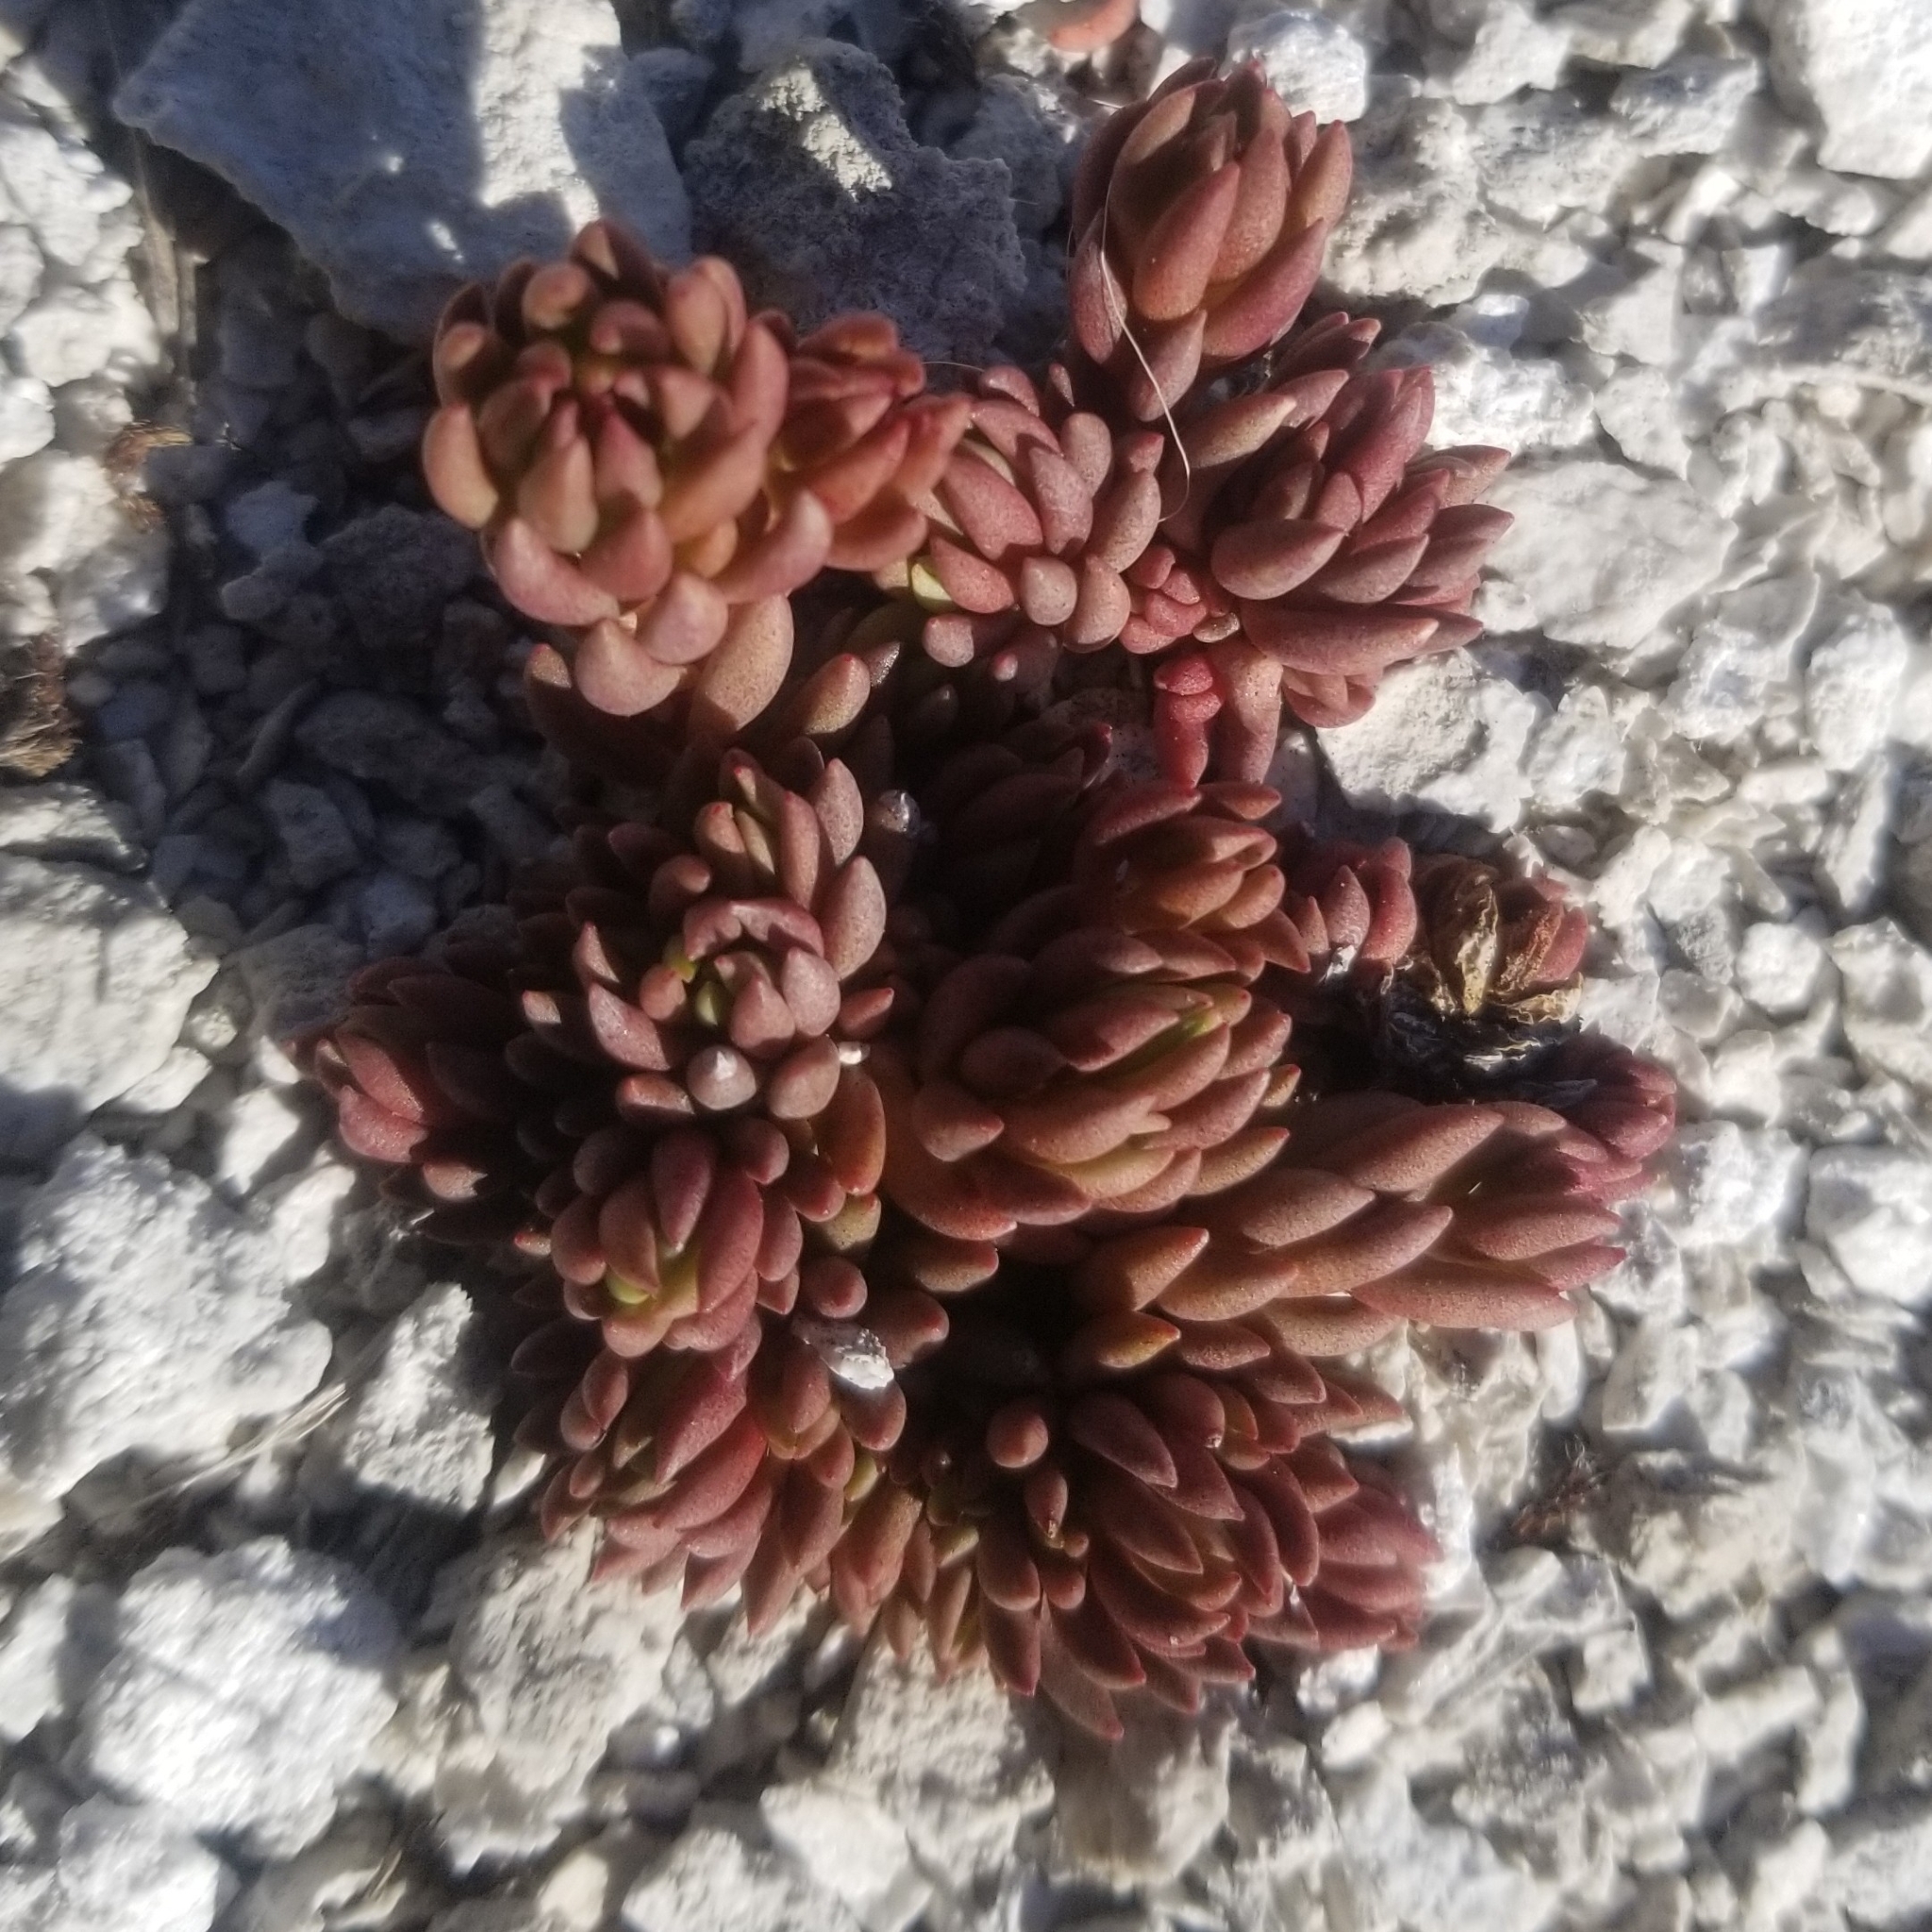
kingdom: Plantae
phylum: Tracheophyta
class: Magnoliopsida
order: Saxifragales
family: Crassulaceae
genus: Sedum
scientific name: Sedum lanceolatum
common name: Common stonecrop
